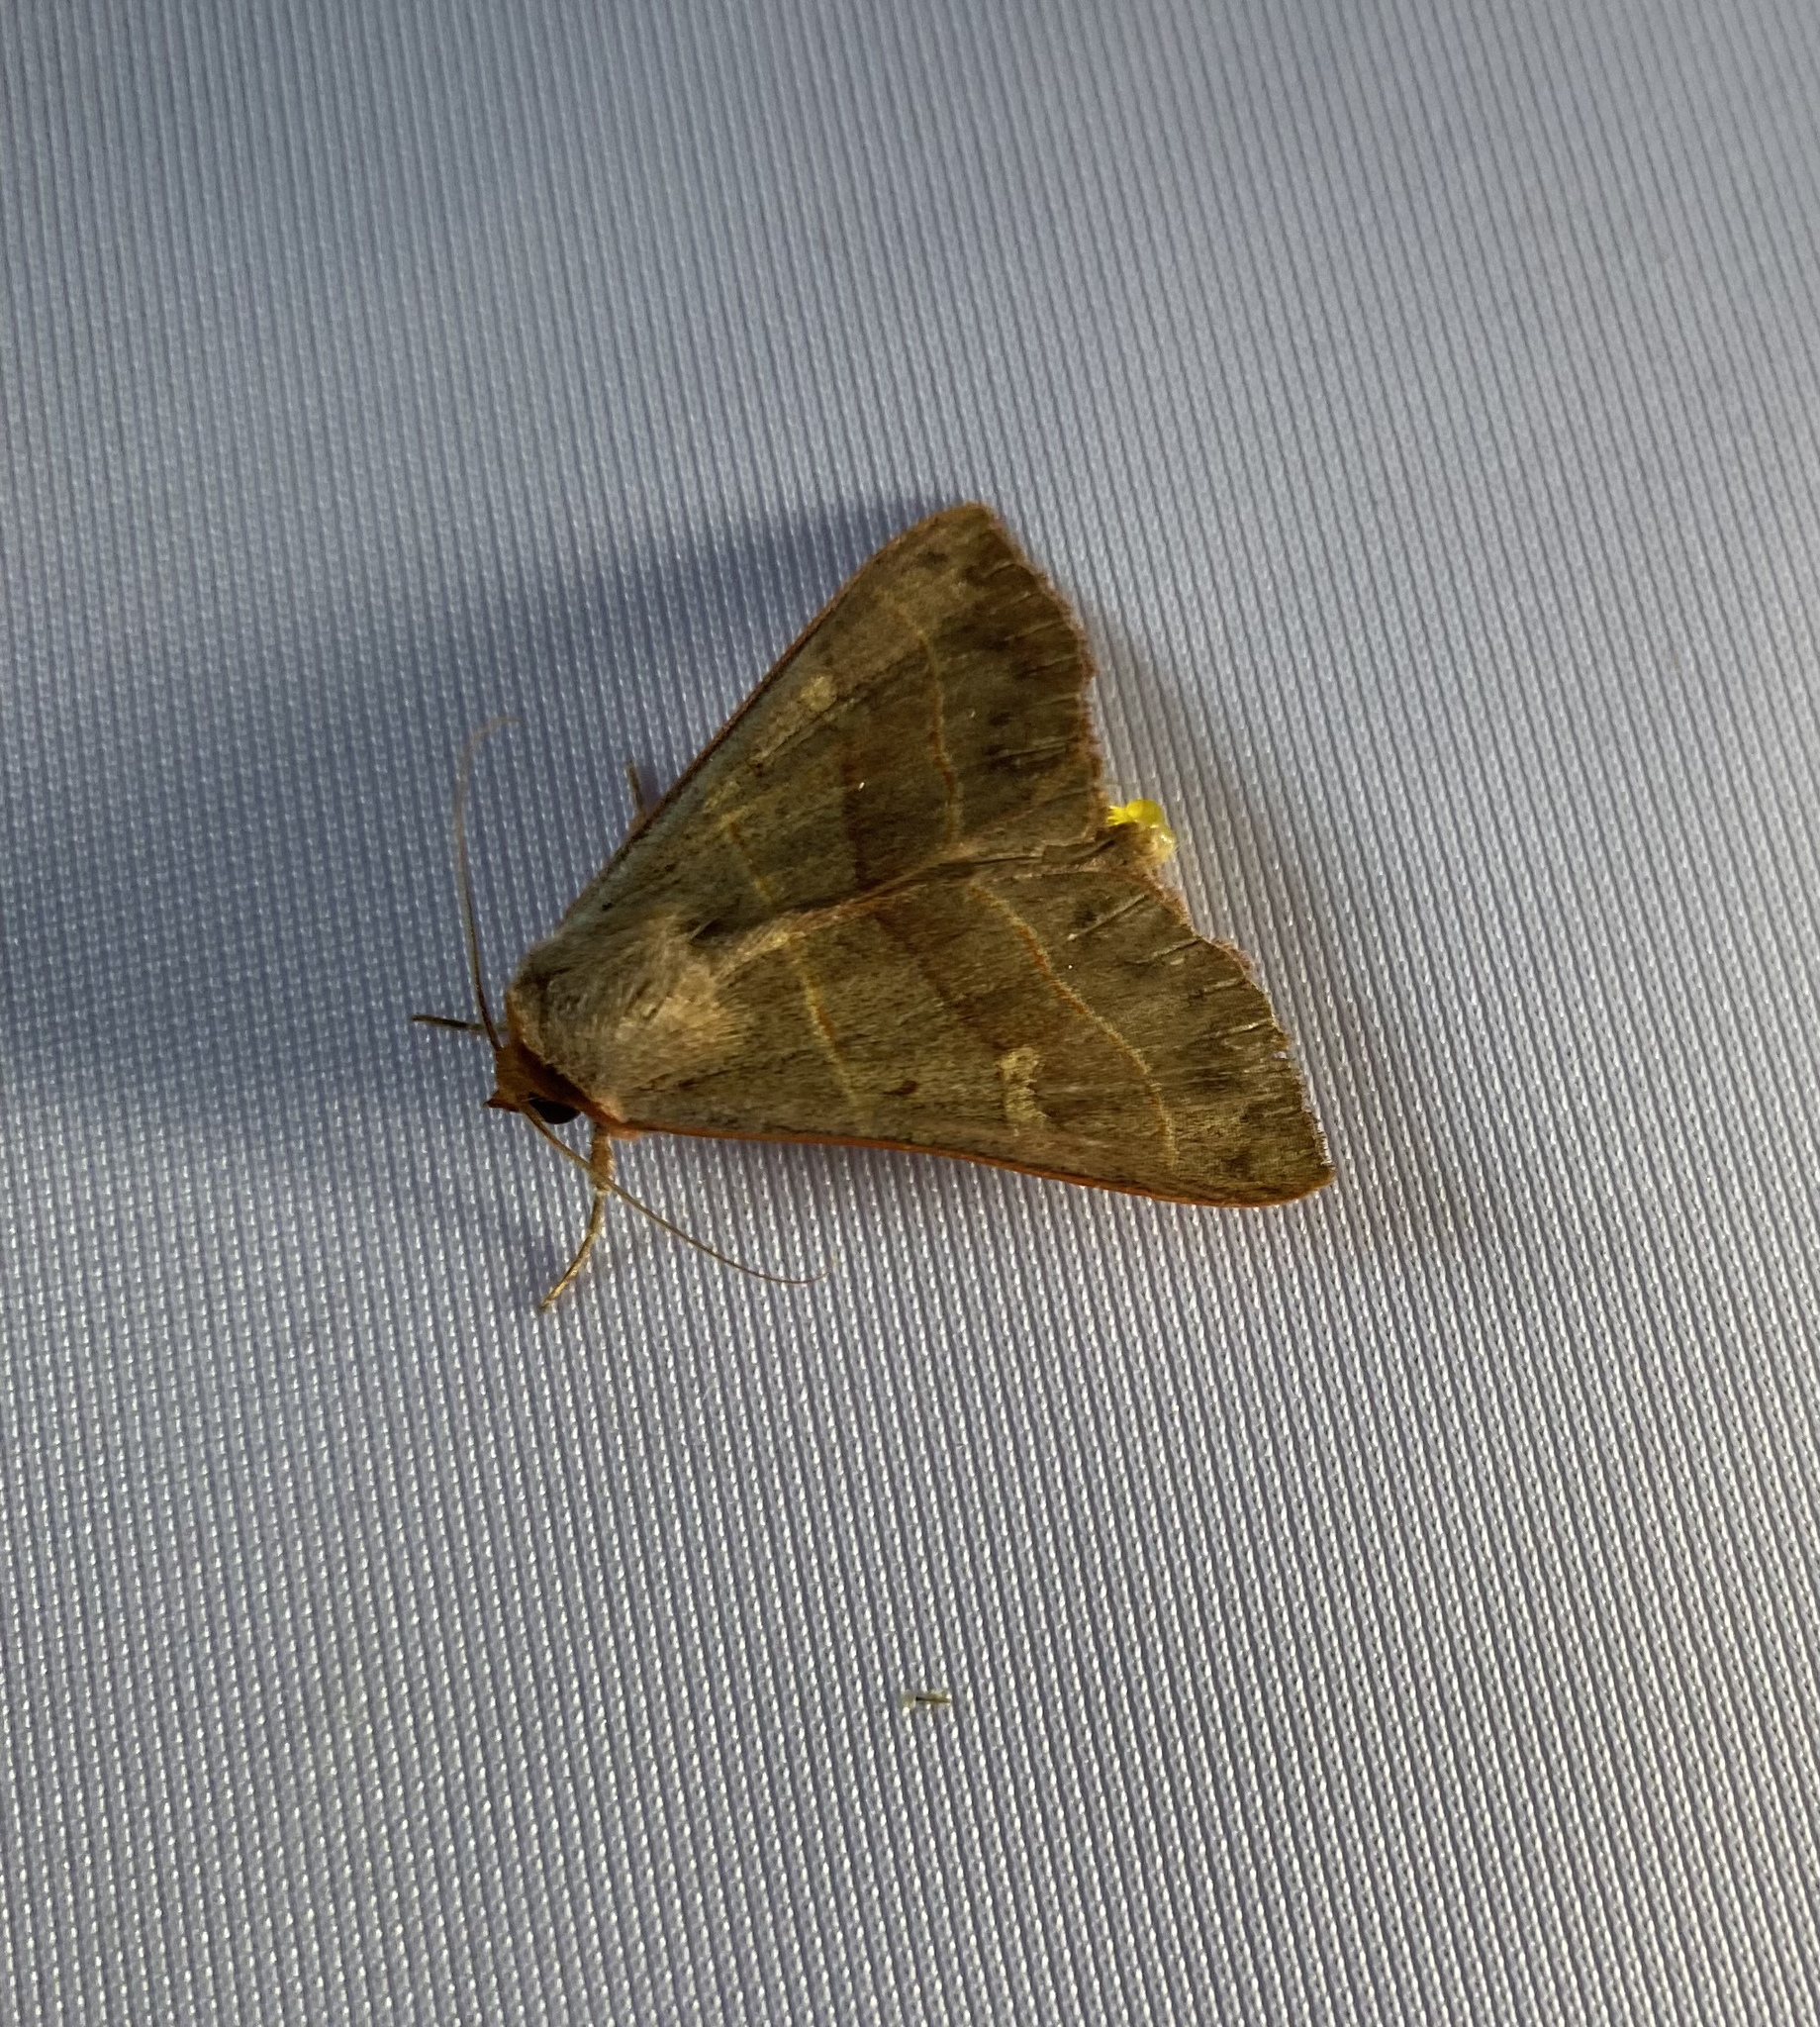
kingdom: Animalia
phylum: Arthropoda
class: Insecta
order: Lepidoptera
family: Erebidae
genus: Panopoda
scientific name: Panopoda rufimargo
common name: Red-lined panopoda moth
